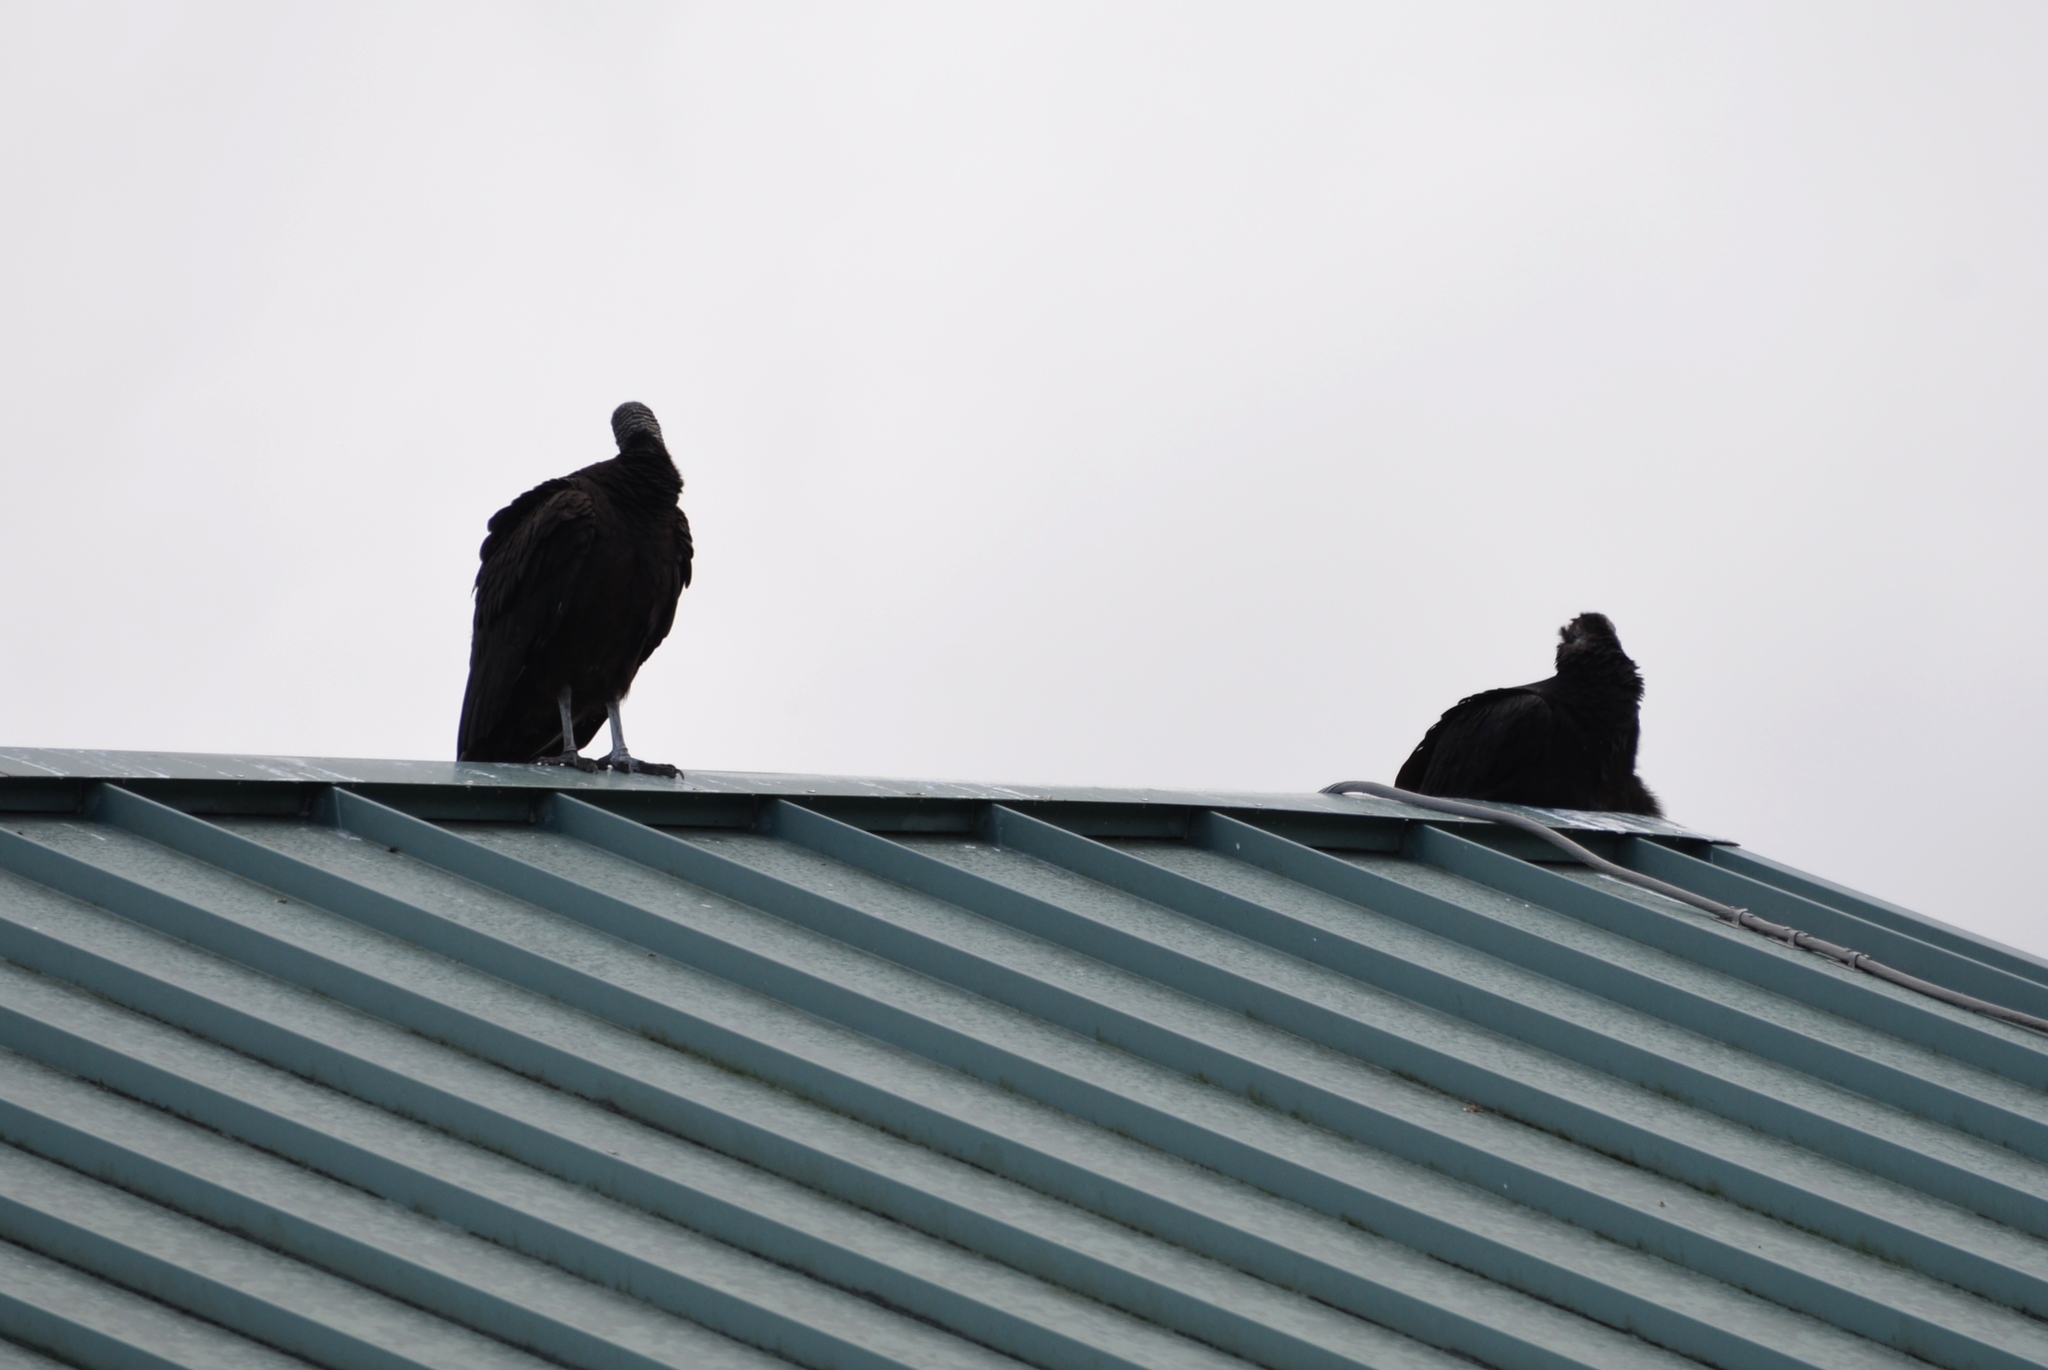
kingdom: Animalia
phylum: Chordata
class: Aves
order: Accipitriformes
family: Cathartidae
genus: Coragyps
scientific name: Coragyps atratus
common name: Black vulture
